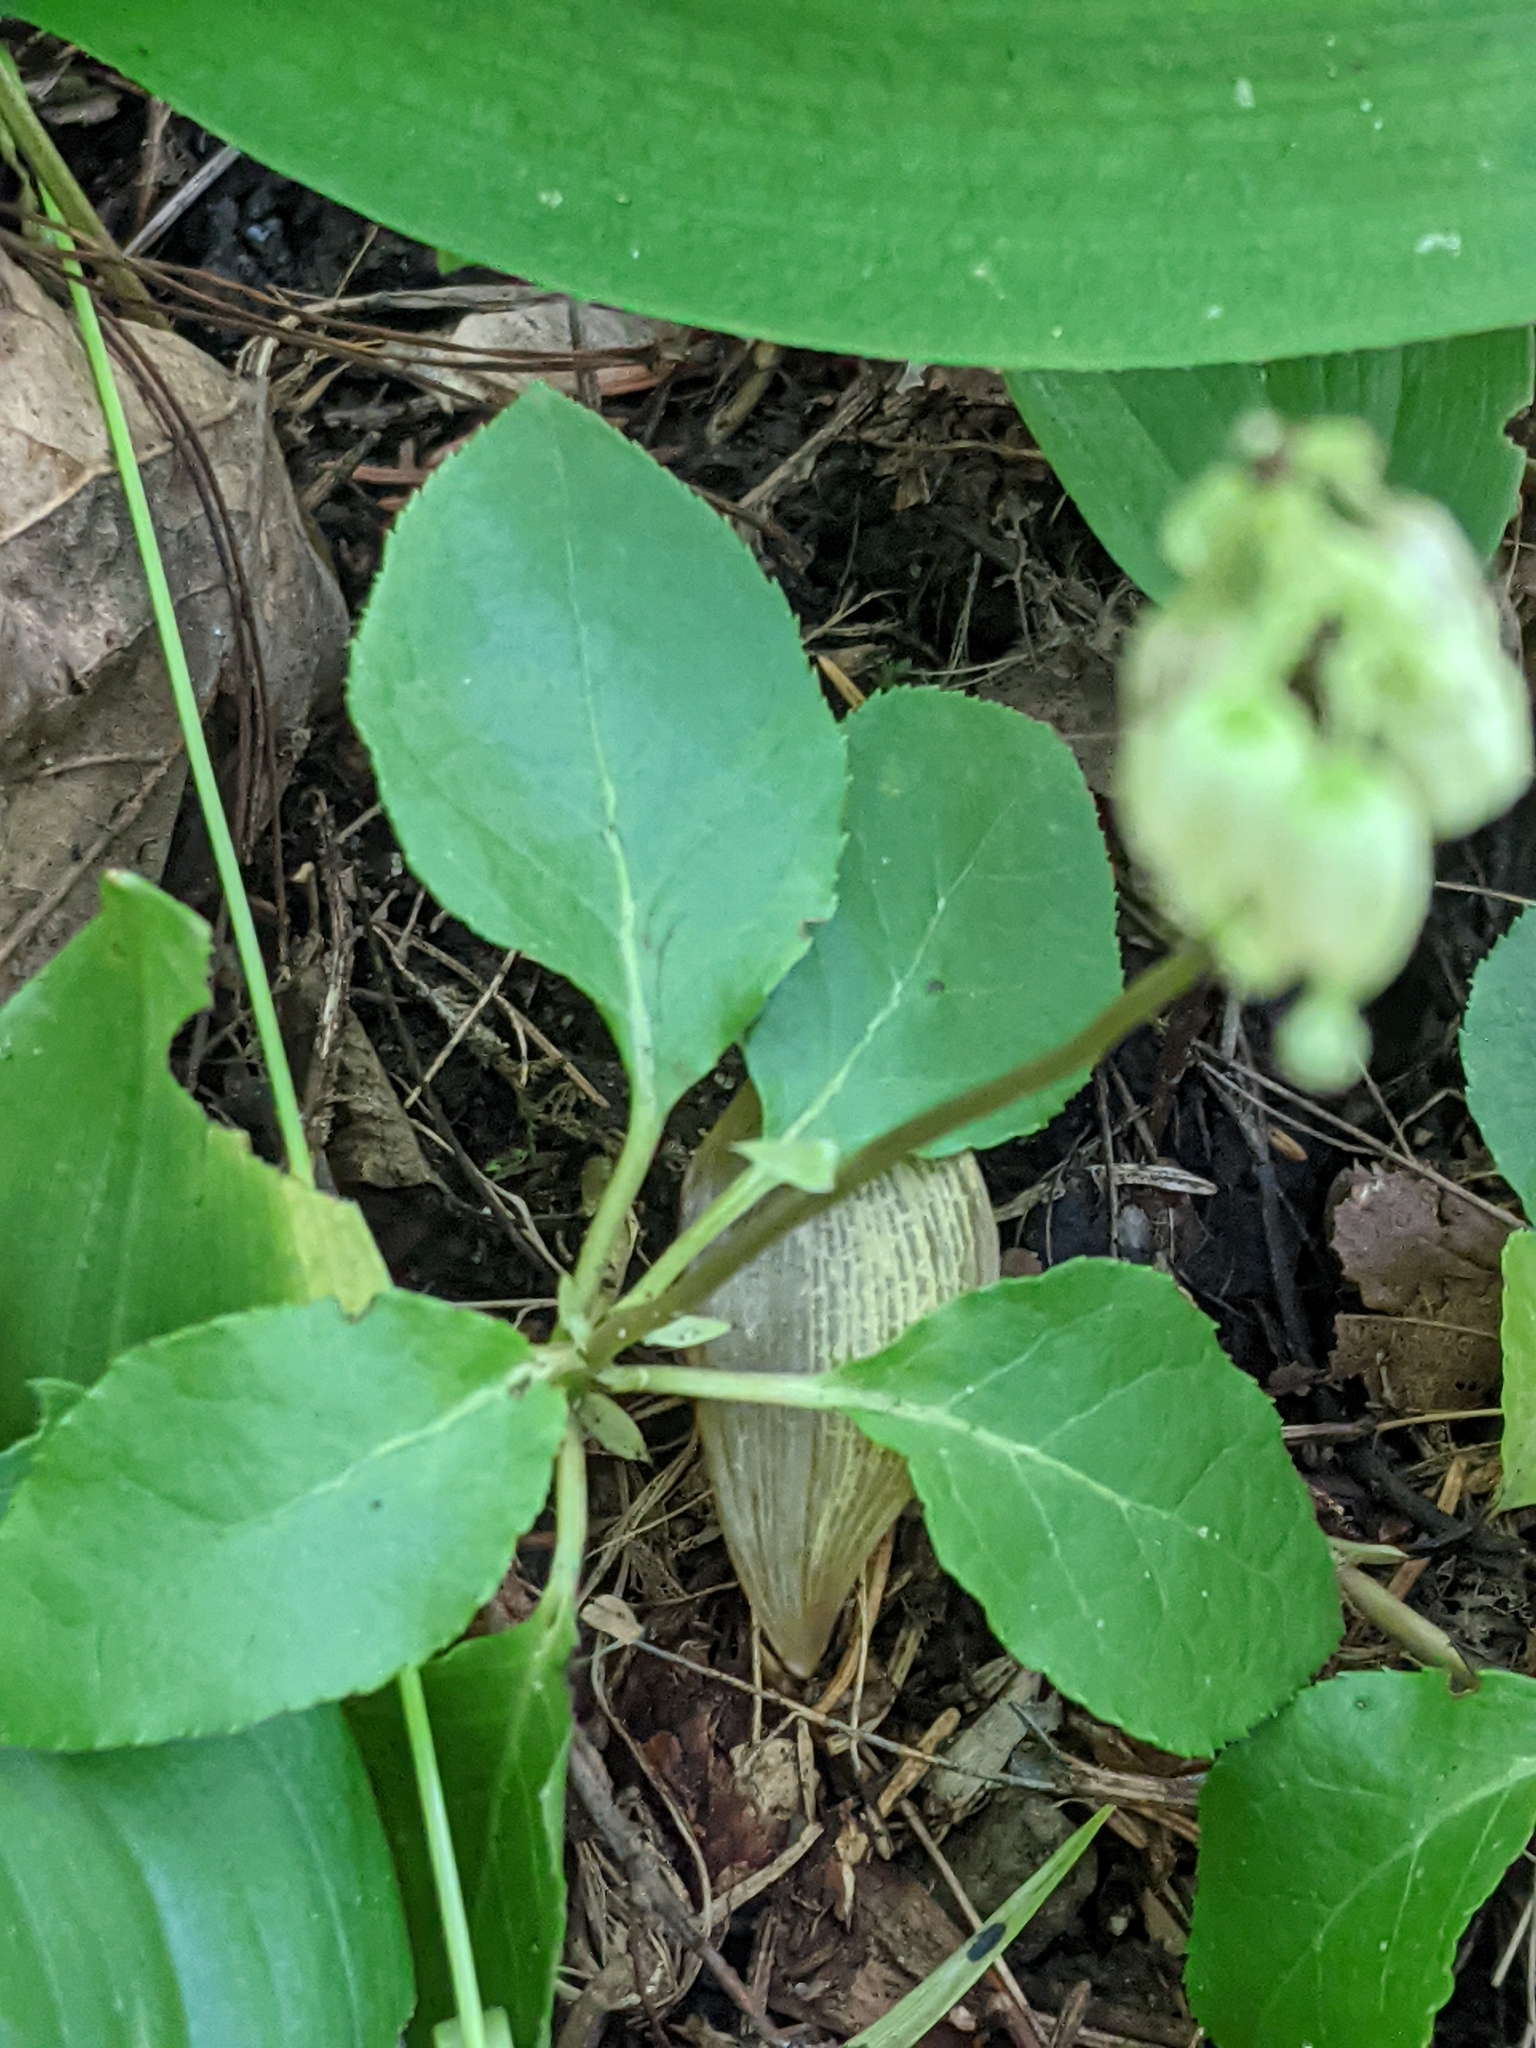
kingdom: Plantae
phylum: Tracheophyta
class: Magnoliopsida
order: Ericales
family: Ericaceae
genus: Orthilia
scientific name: Orthilia secunda
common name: One-sided orthilia
